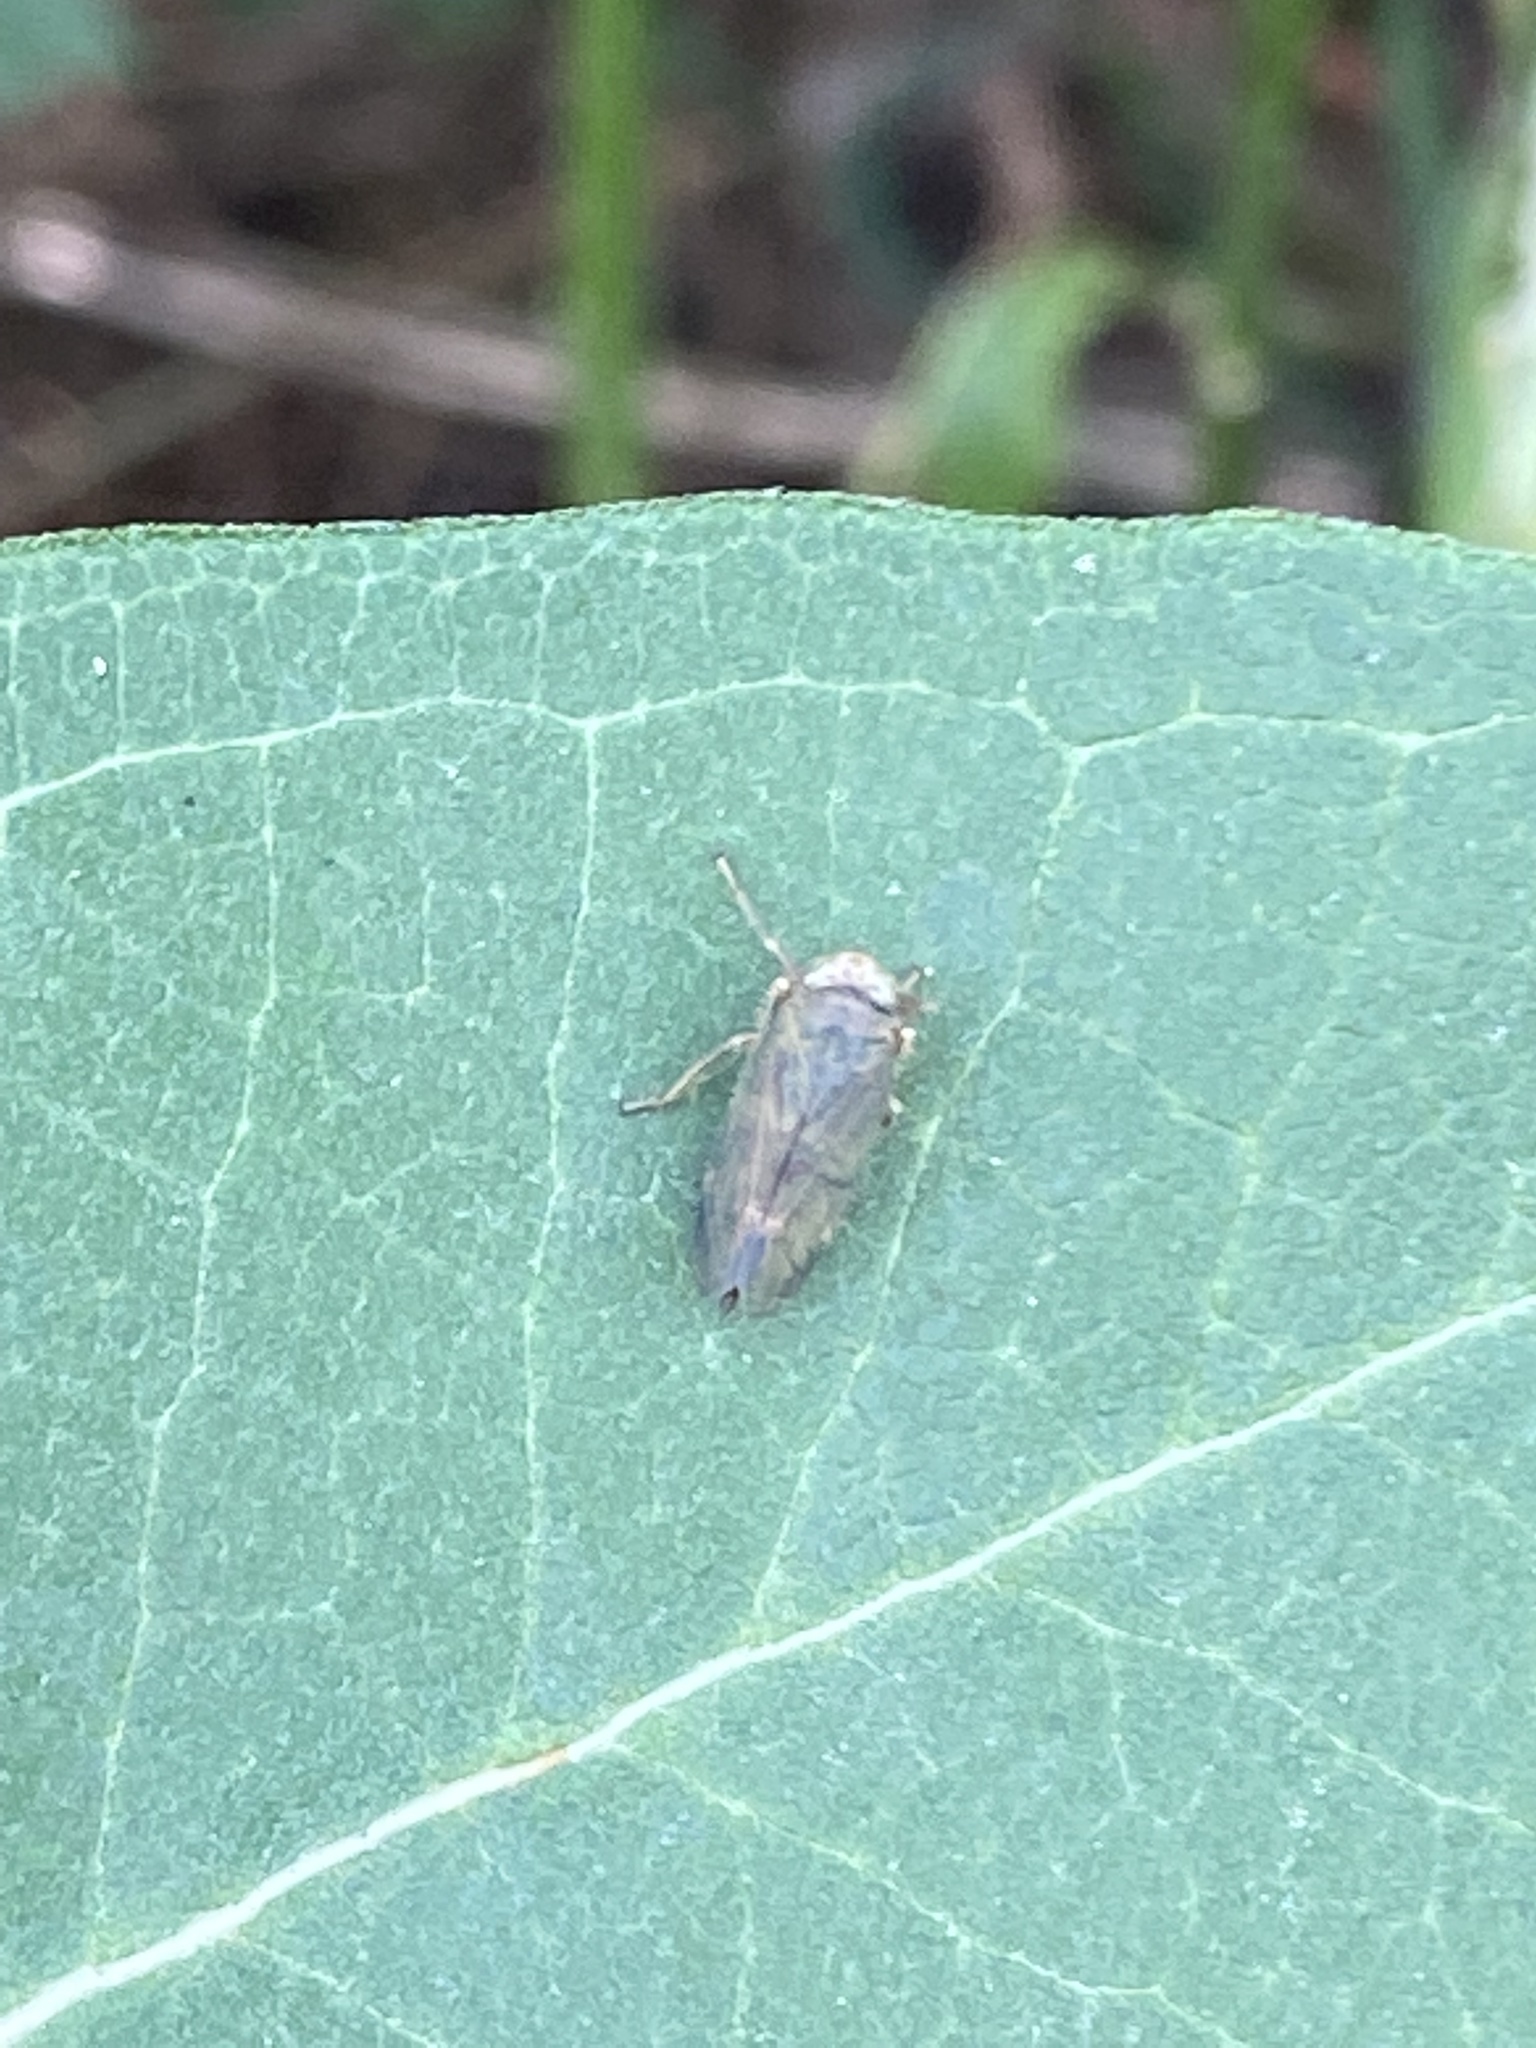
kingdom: Animalia
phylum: Arthropoda
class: Insecta
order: Hemiptera
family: Cicadellidae
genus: Jikradia
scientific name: Jikradia olitoria
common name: Coppery leafhopper
